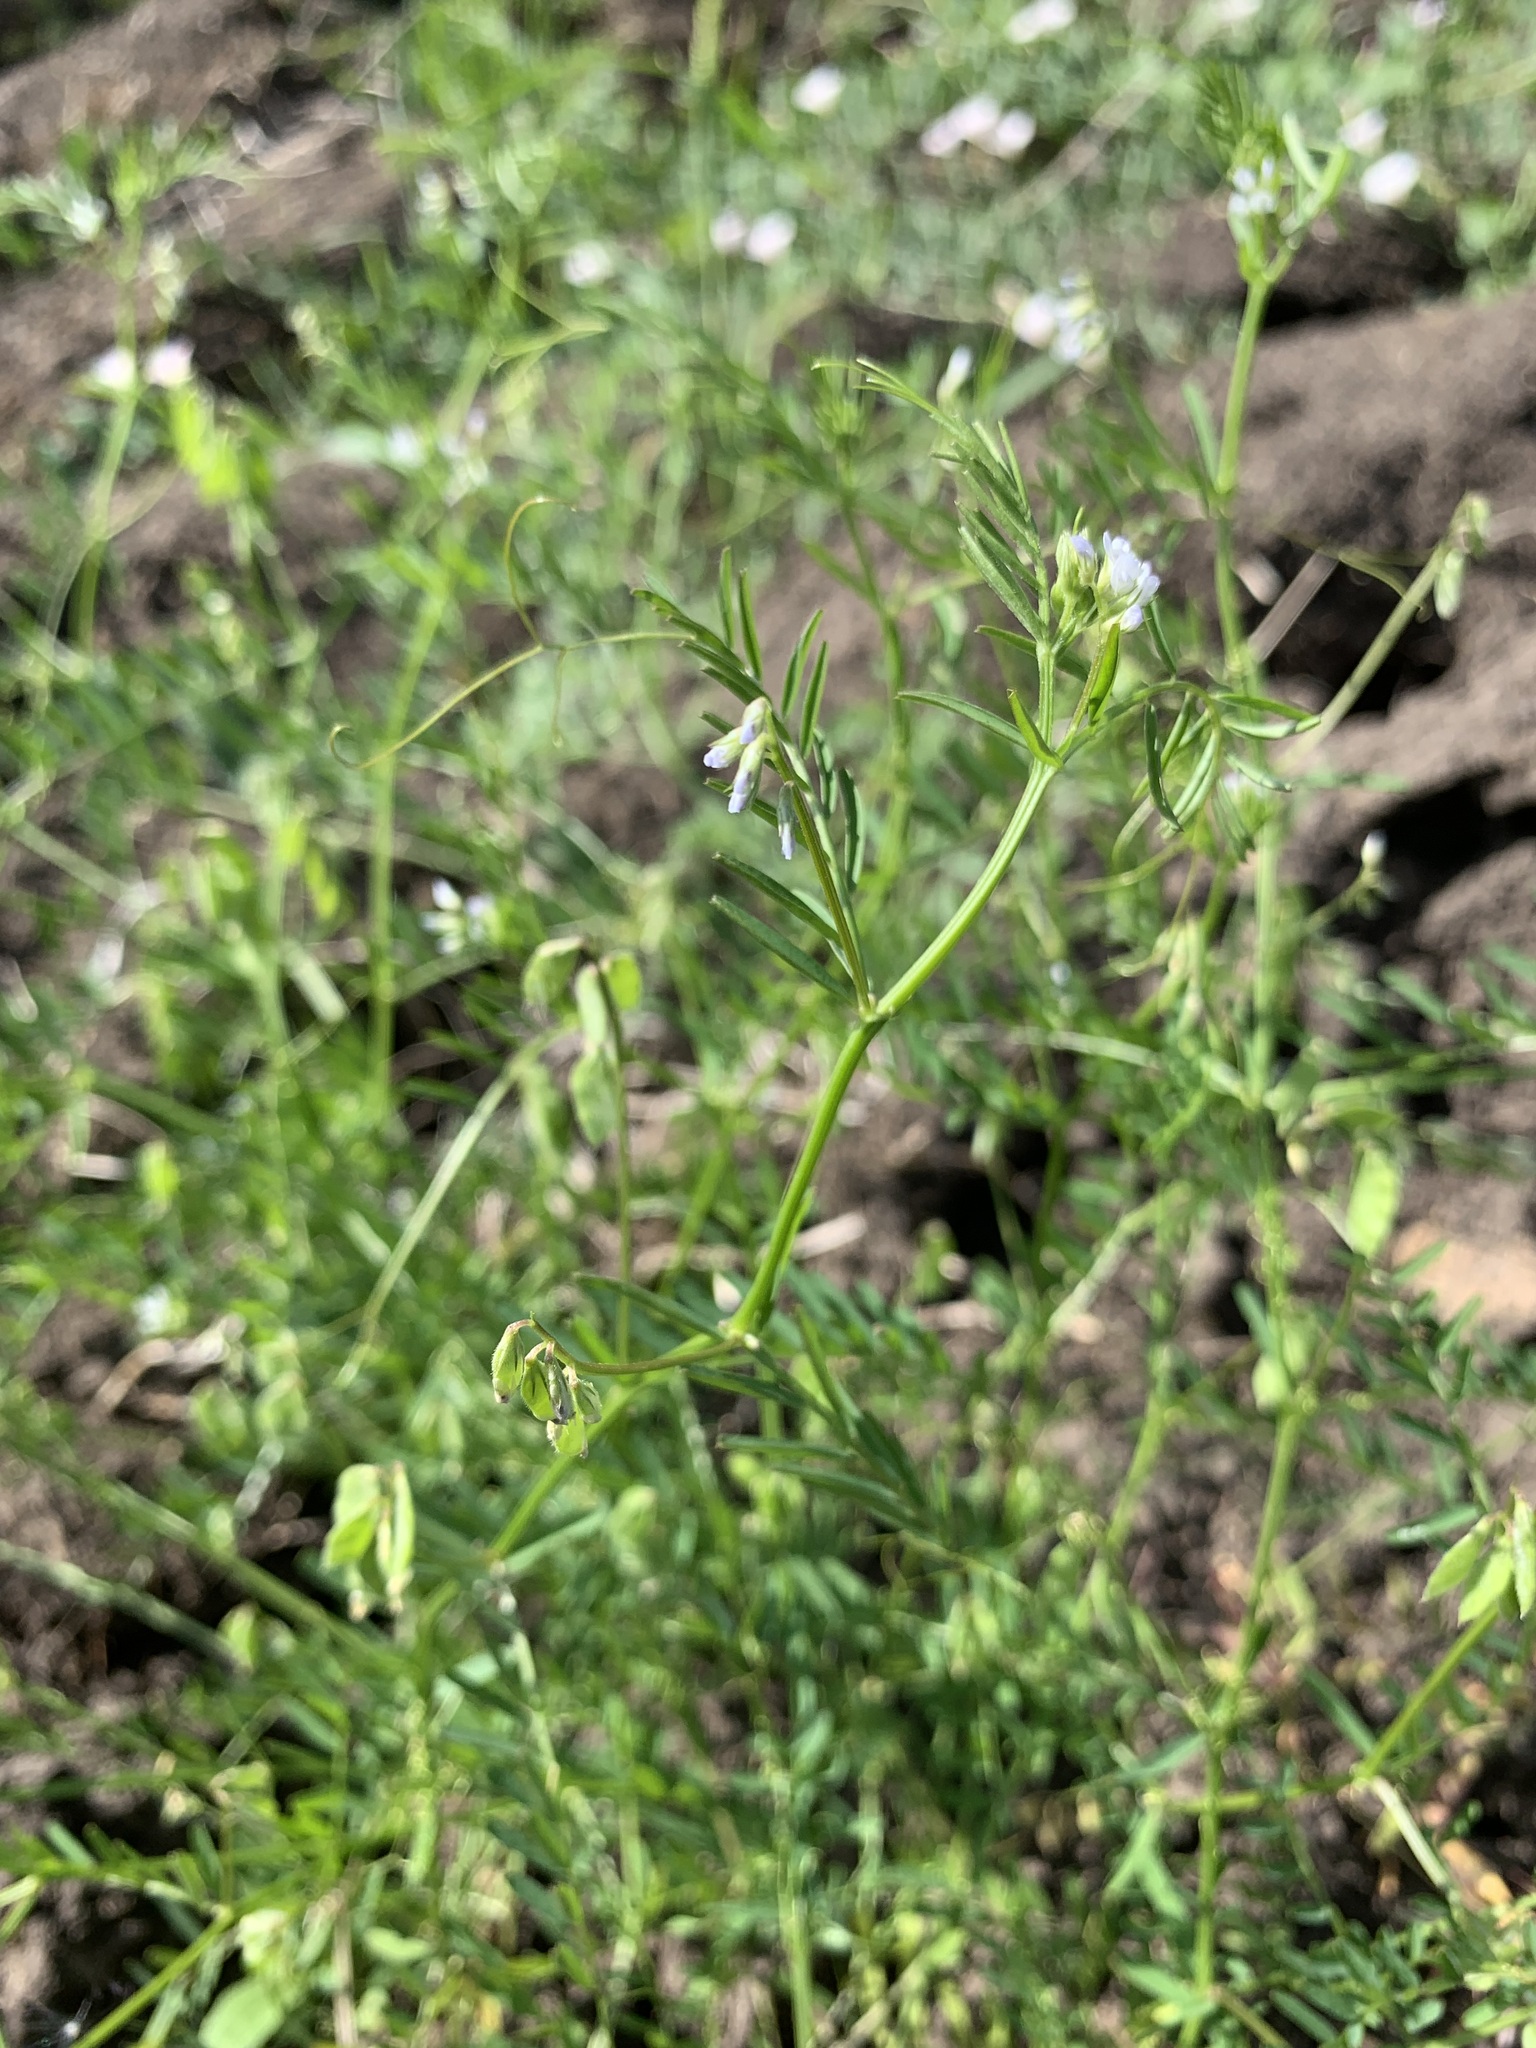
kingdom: Plantae
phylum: Tracheophyta
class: Magnoliopsida
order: Fabales
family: Fabaceae
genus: Vicia
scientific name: Vicia hirsuta
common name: Tiny vetch
